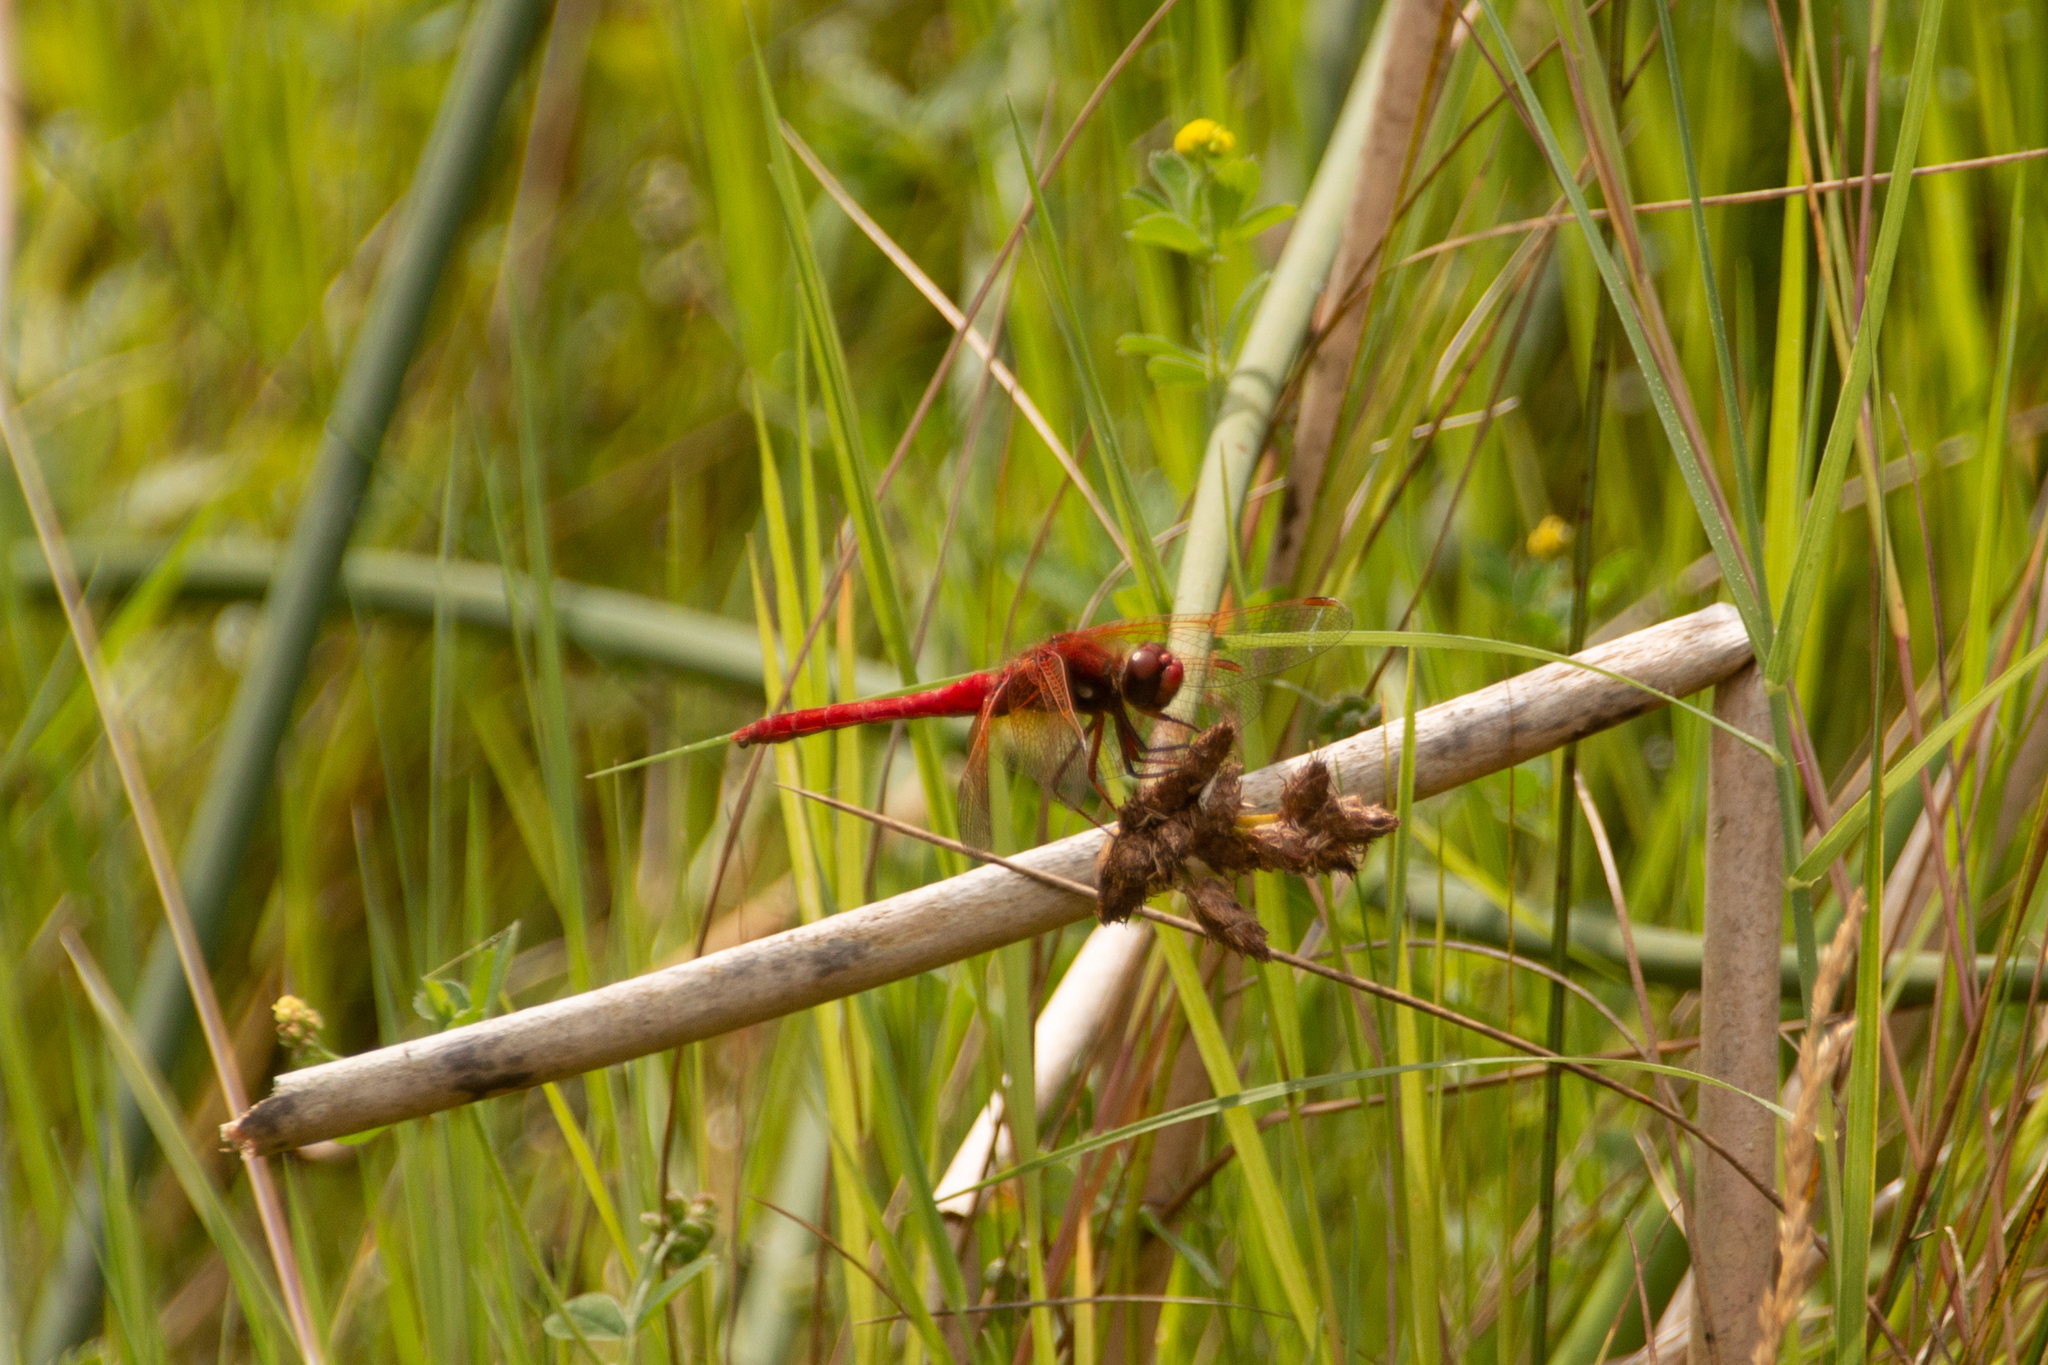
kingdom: Animalia
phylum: Arthropoda
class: Insecta
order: Odonata
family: Libellulidae
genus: Sympetrum
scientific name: Sympetrum illotum
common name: Cardinal meadowhawk
